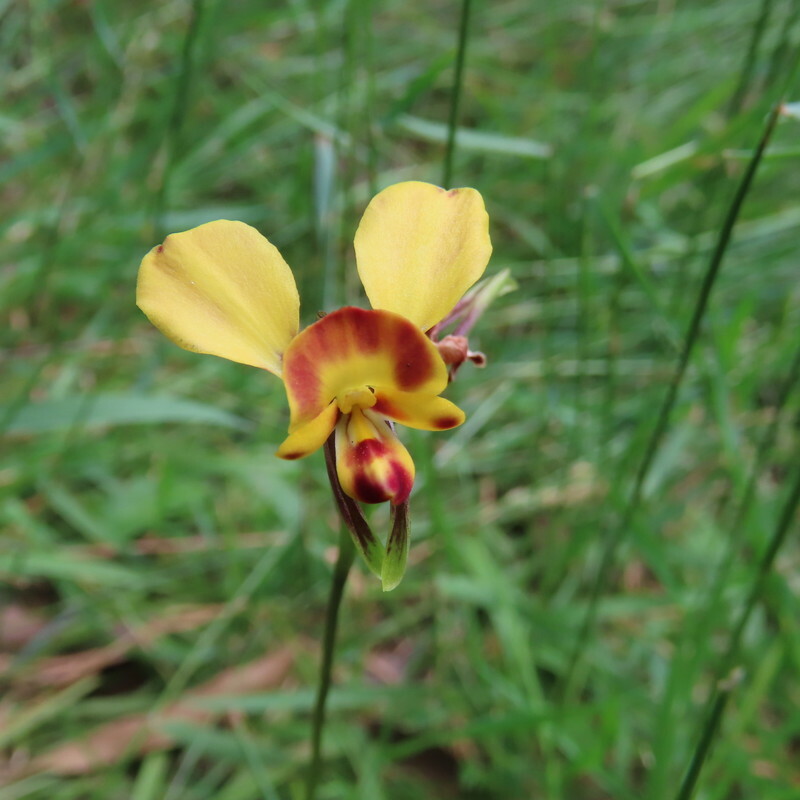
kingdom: Plantae
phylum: Tracheophyta
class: Liliopsida
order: Asparagales
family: Orchidaceae
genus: Diuris
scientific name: Diuris orientis
